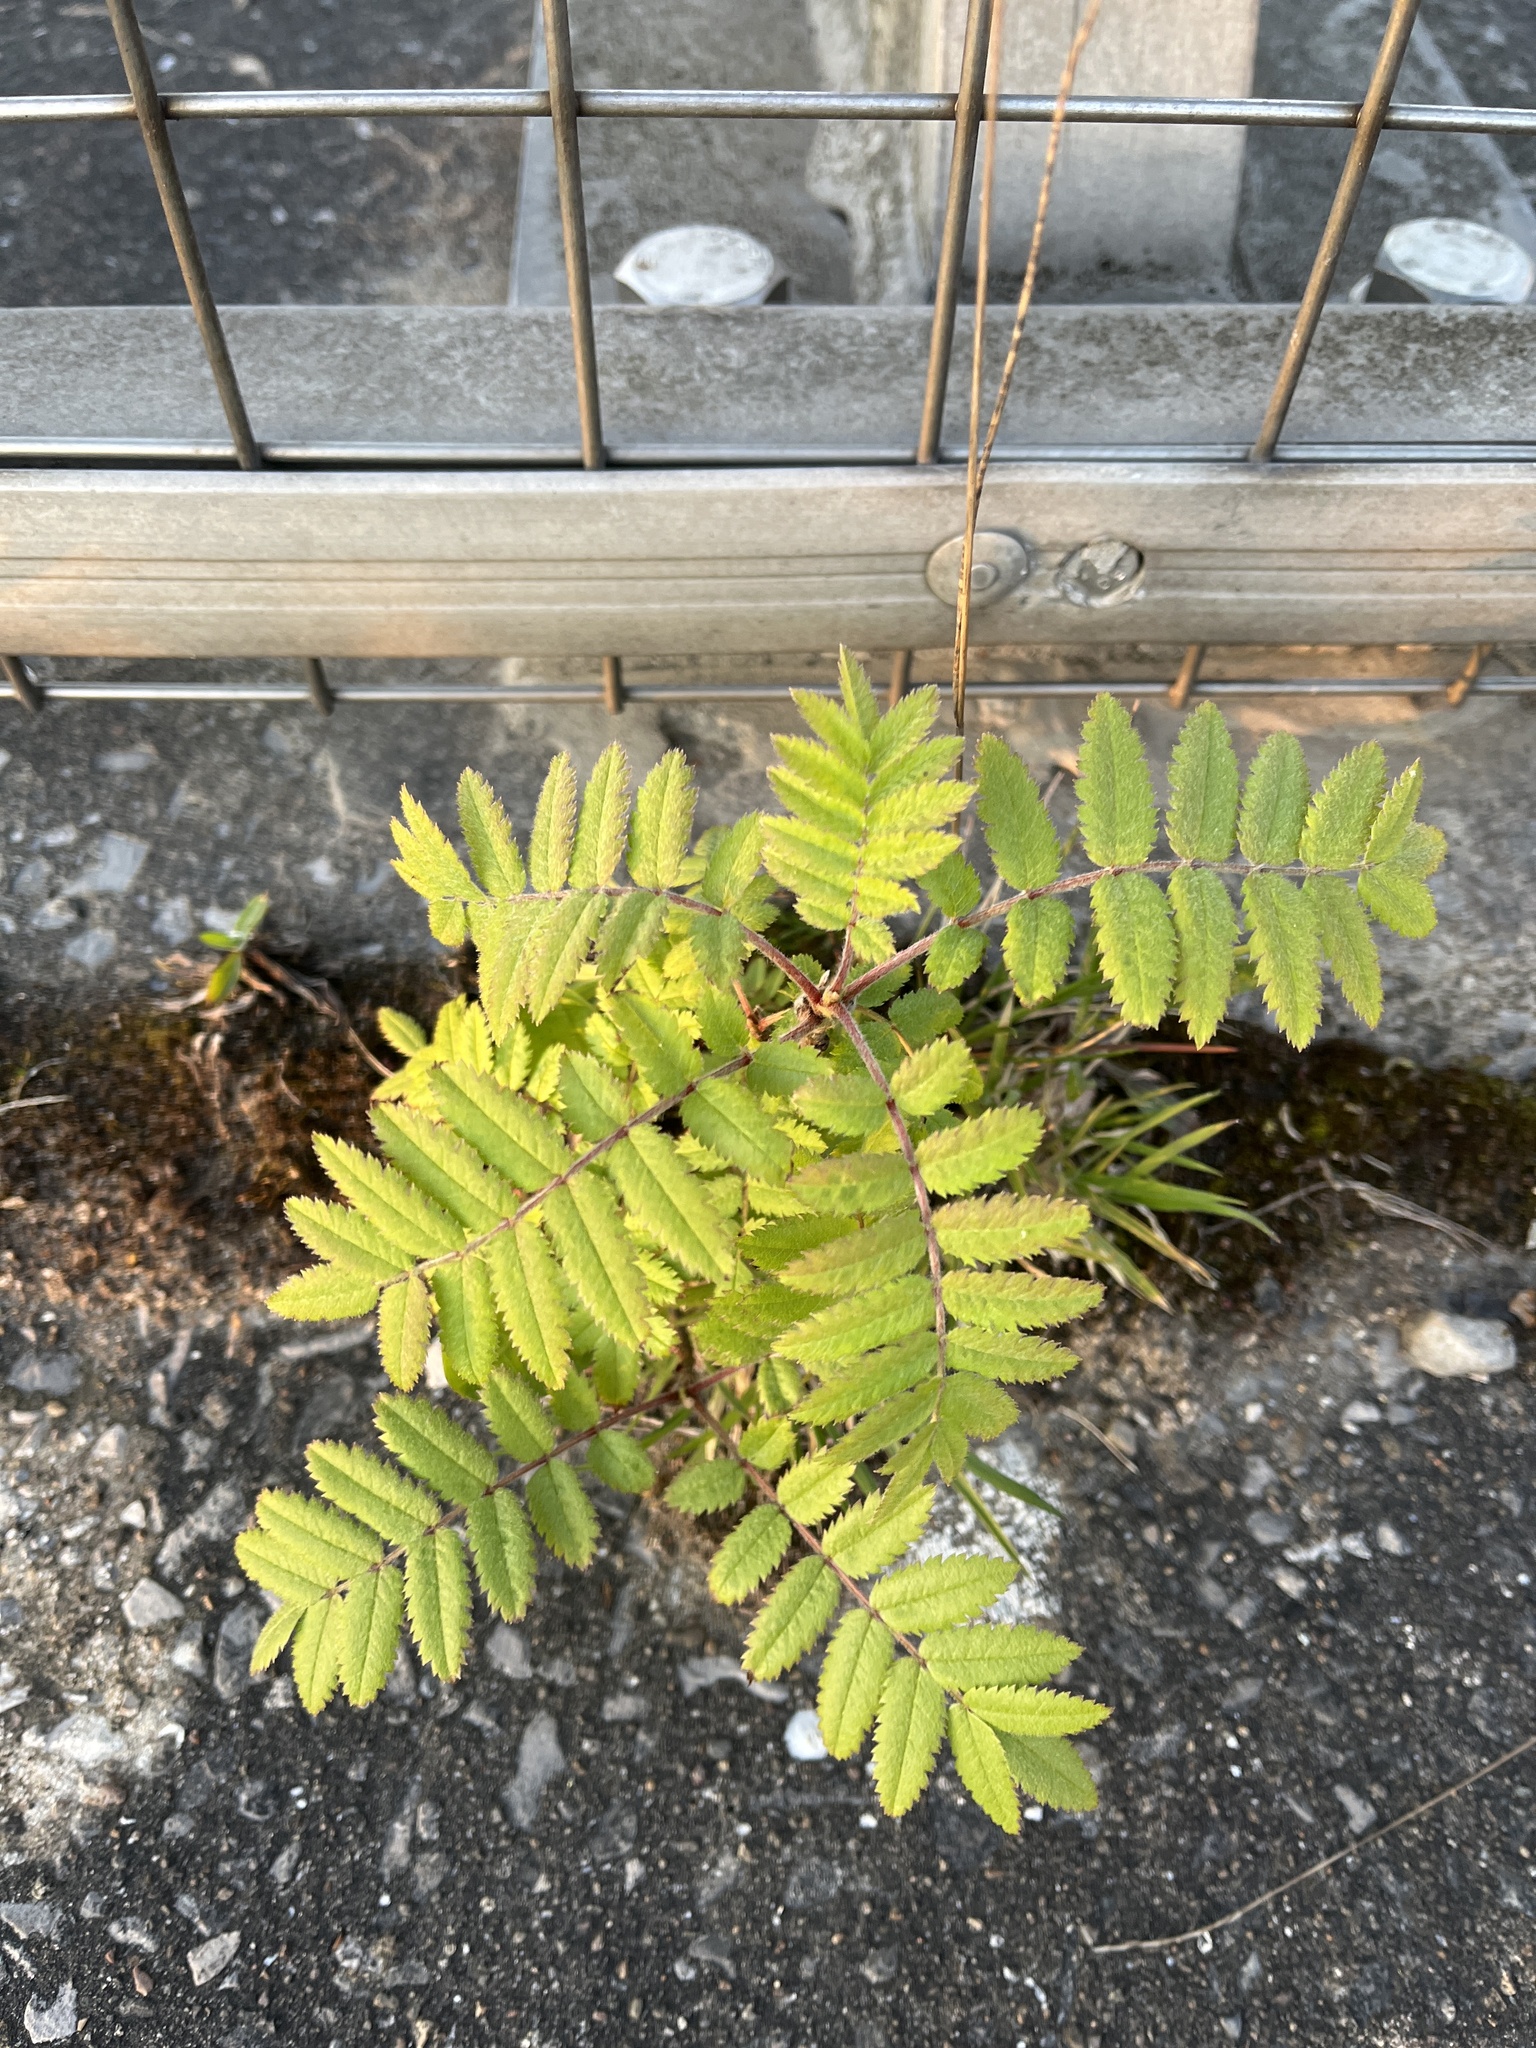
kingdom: Plantae
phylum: Tracheophyta
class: Magnoliopsida
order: Rosales
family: Rosaceae
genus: Sorbus
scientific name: Sorbus aucuparia
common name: Rowan
